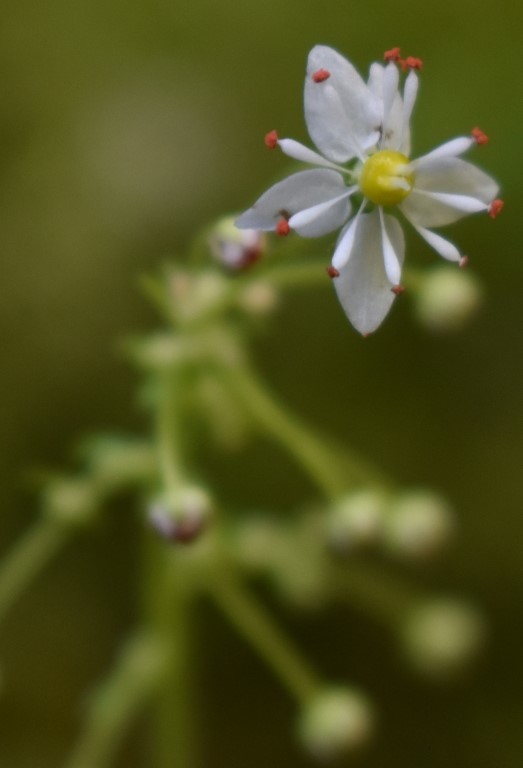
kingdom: Plantae
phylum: Tracheophyta
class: Magnoliopsida
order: Saxifragales
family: Saxifragaceae
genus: Micranthes
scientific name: Micranthes mertensiana
